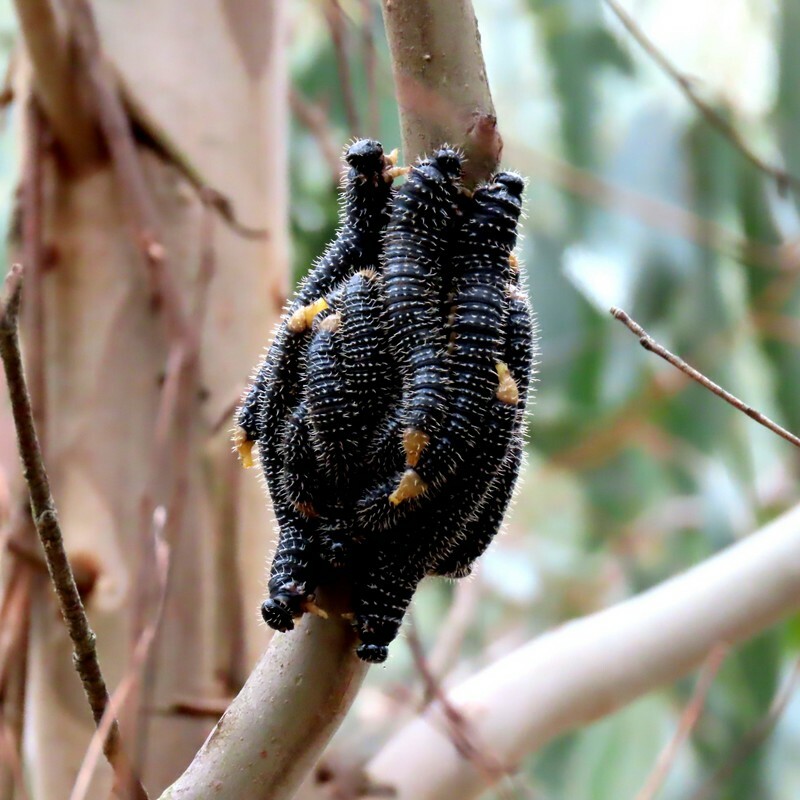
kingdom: Animalia
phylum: Arthropoda
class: Insecta
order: Hymenoptera
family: Pergidae
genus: Perga
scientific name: Perga affinis
